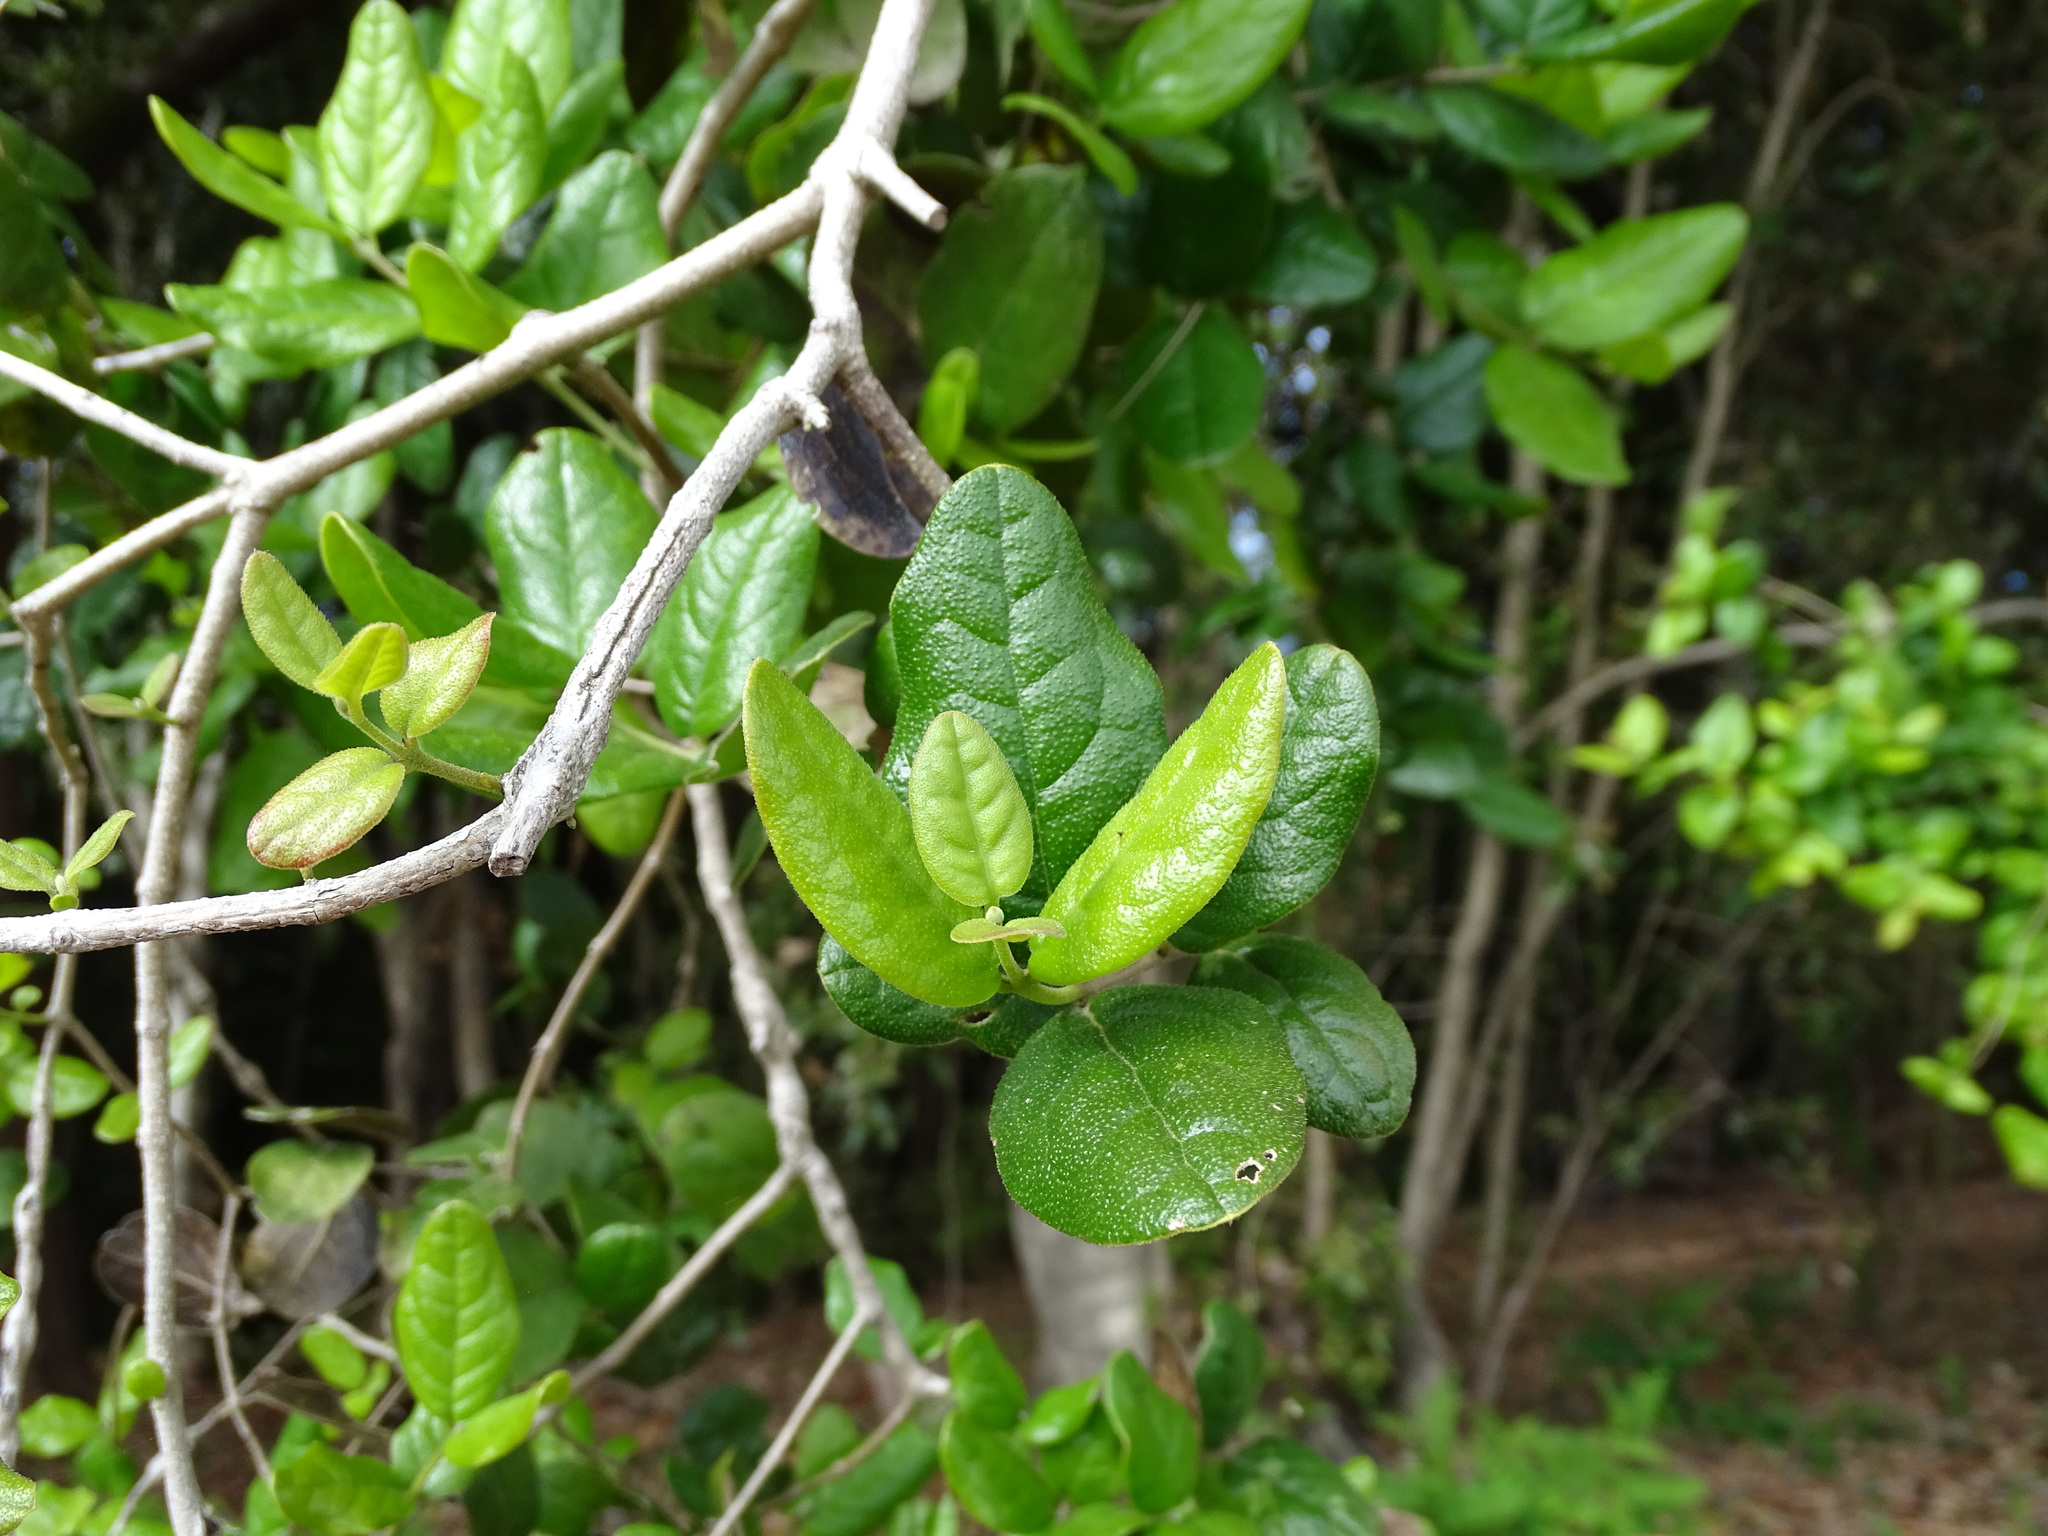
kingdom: Plantae
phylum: Tracheophyta
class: Magnoliopsida
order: Laurales
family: Monimiaceae
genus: Peumus
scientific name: Peumus boldus
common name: Boldo
